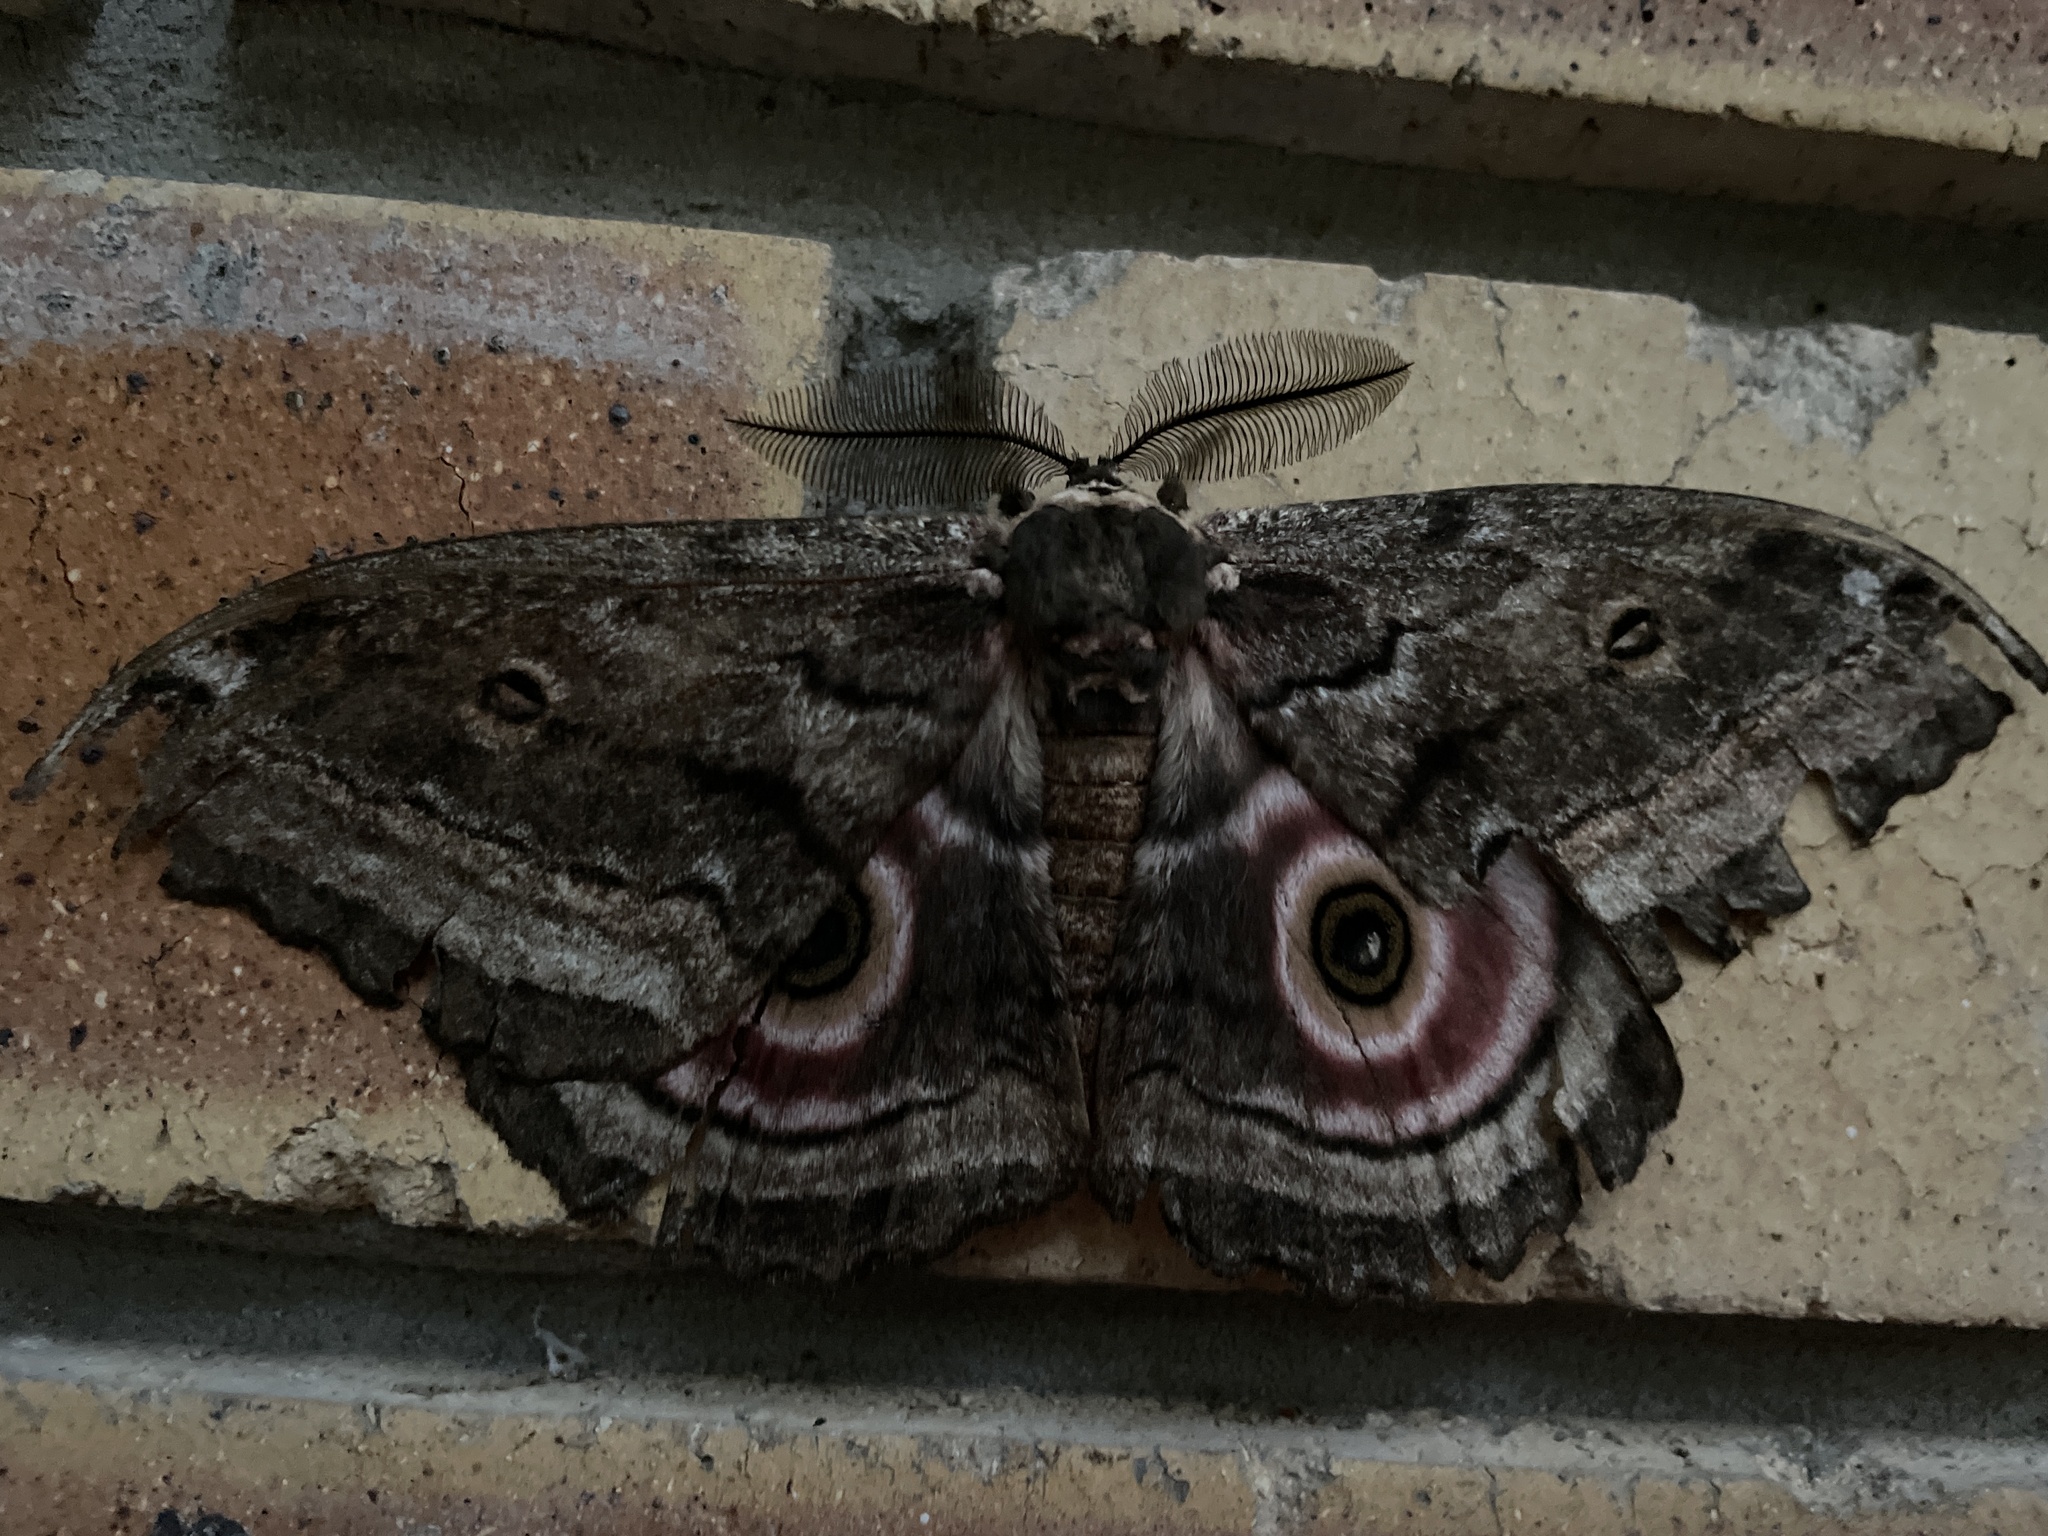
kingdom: Animalia
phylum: Arthropoda
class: Insecta
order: Lepidoptera
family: Saturniidae
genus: Gynanisa
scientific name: Gynanisa maja
